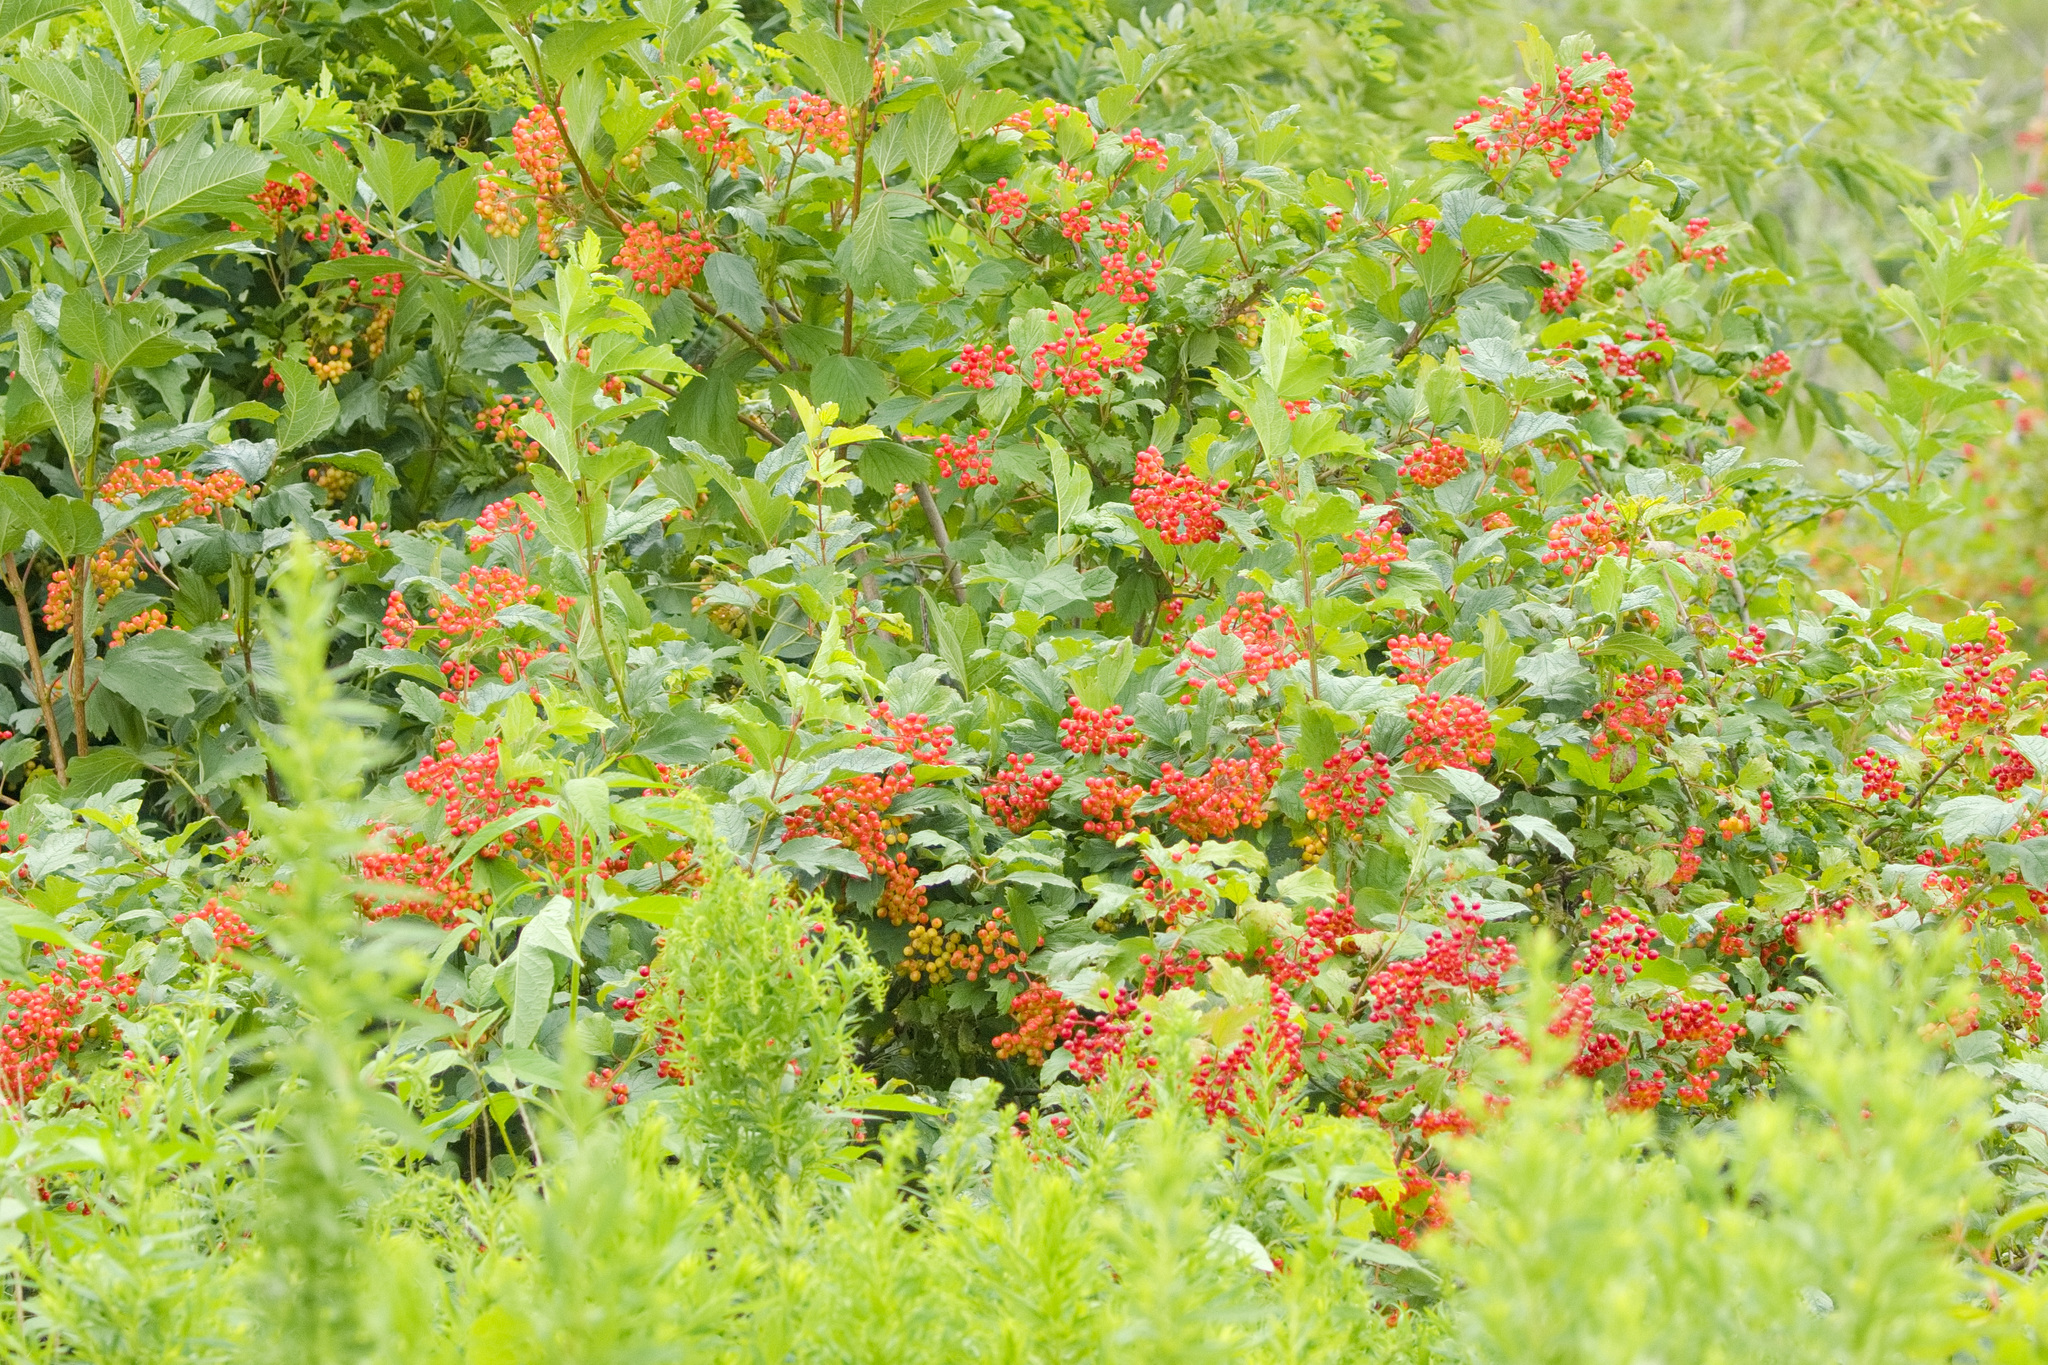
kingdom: Plantae
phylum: Tracheophyta
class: Magnoliopsida
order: Rosales
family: Rosaceae
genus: Physocarpus
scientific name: Physocarpus opulifolius
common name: Ninebark
